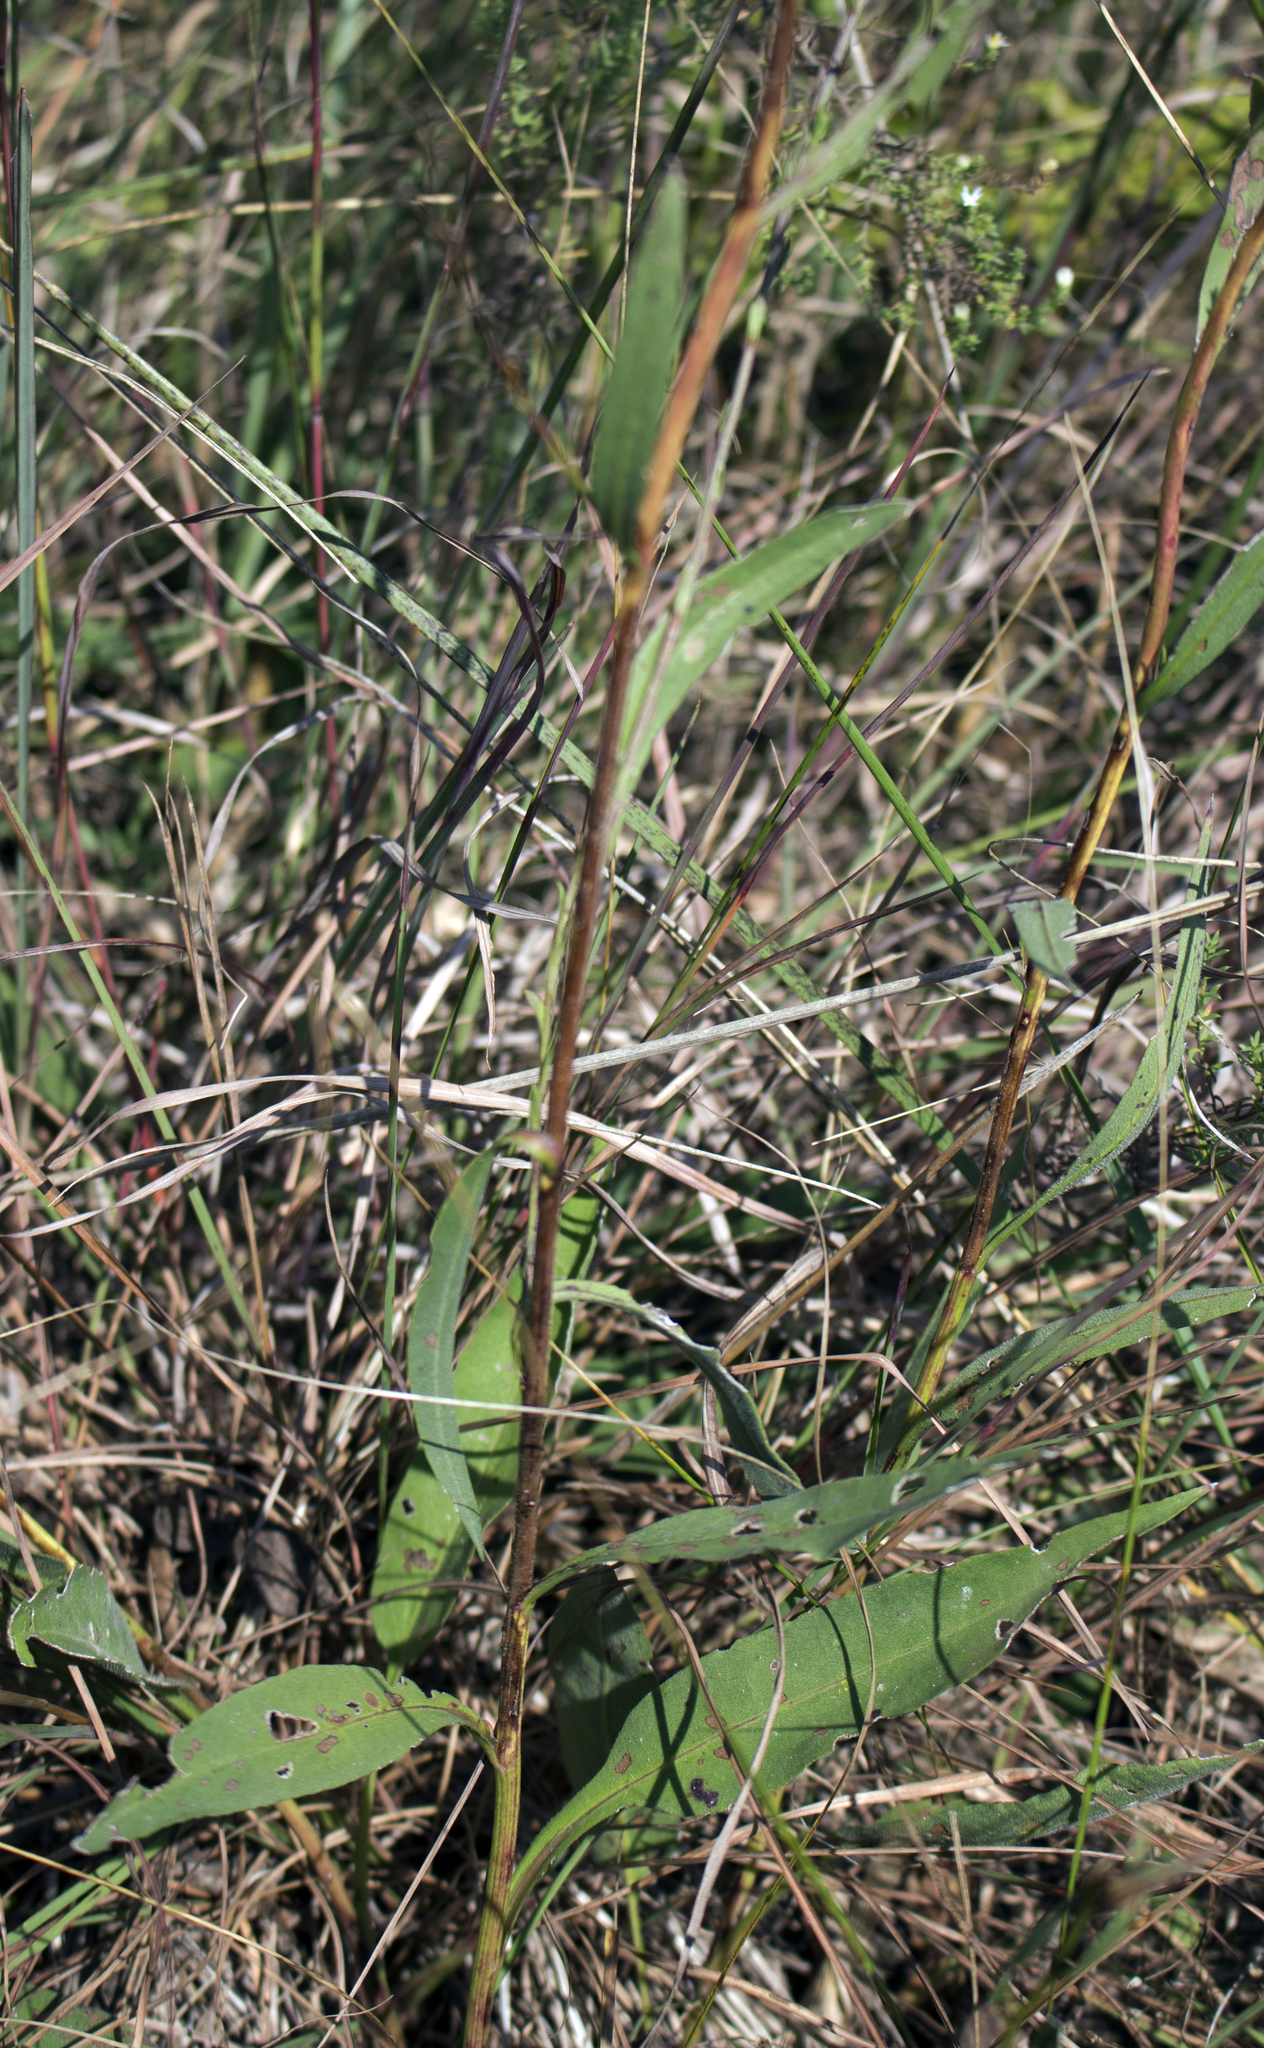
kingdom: Plantae
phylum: Tracheophyta
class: Magnoliopsida
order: Asterales
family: Asteraceae
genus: Symphyotrichum
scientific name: Symphyotrichum oolentangiense
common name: Azure aster
